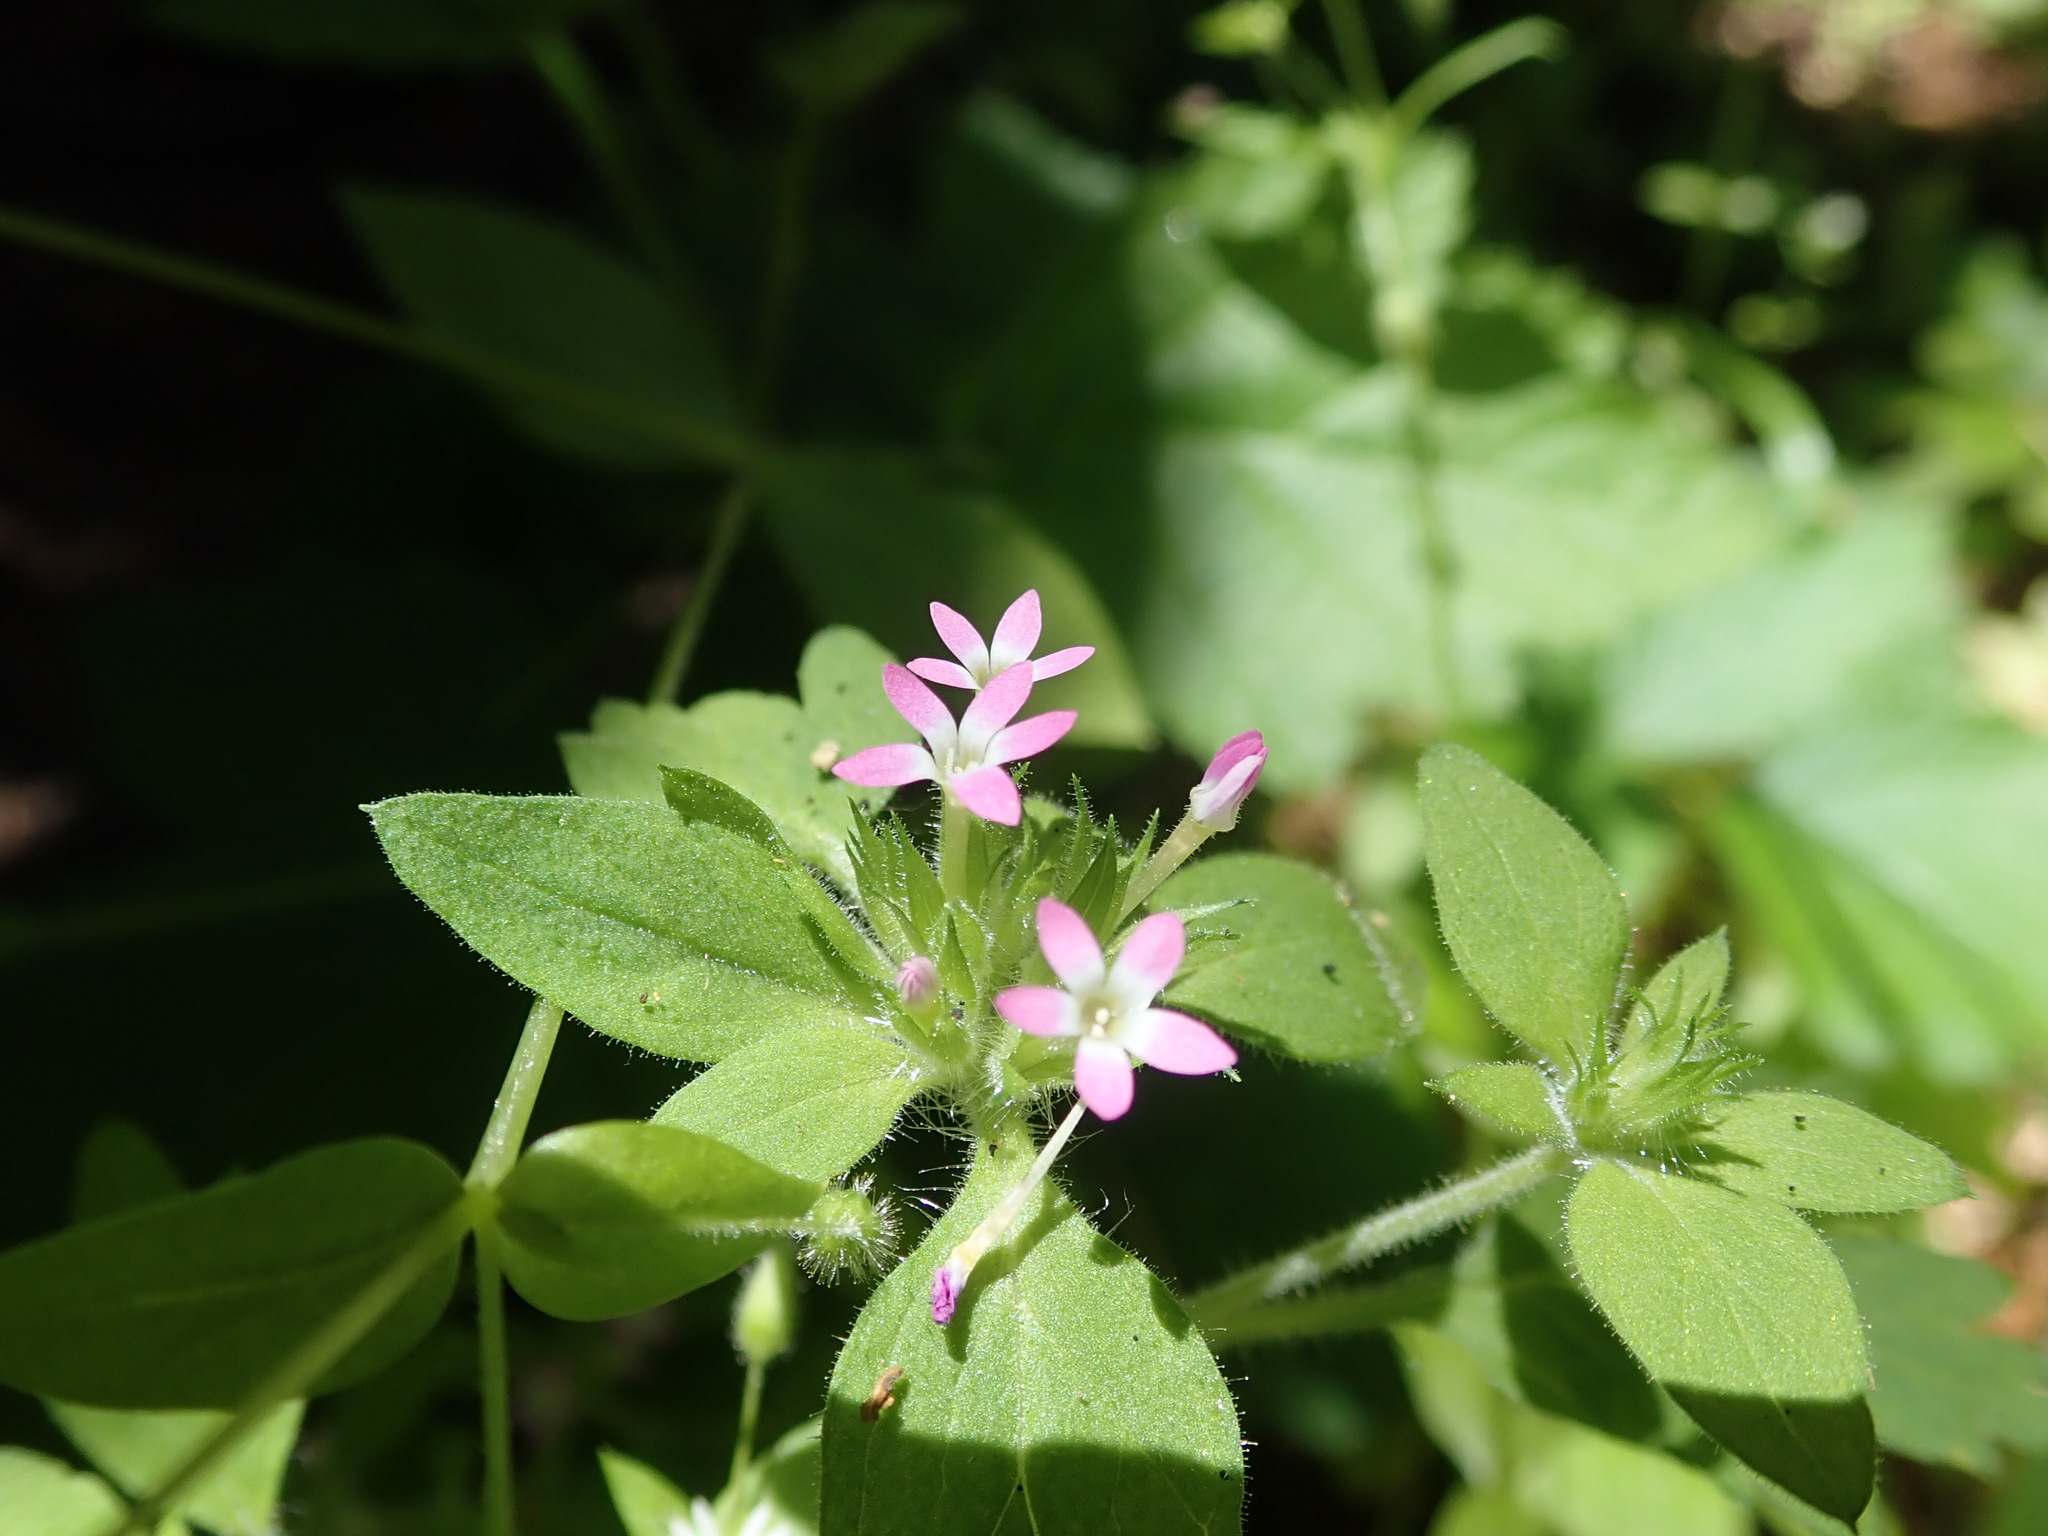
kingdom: Plantae
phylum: Tracheophyta
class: Magnoliopsida
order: Ericales
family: Polemoniaceae
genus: Collomia
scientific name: Collomia heterophylla
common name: Variable-leaved collomia
